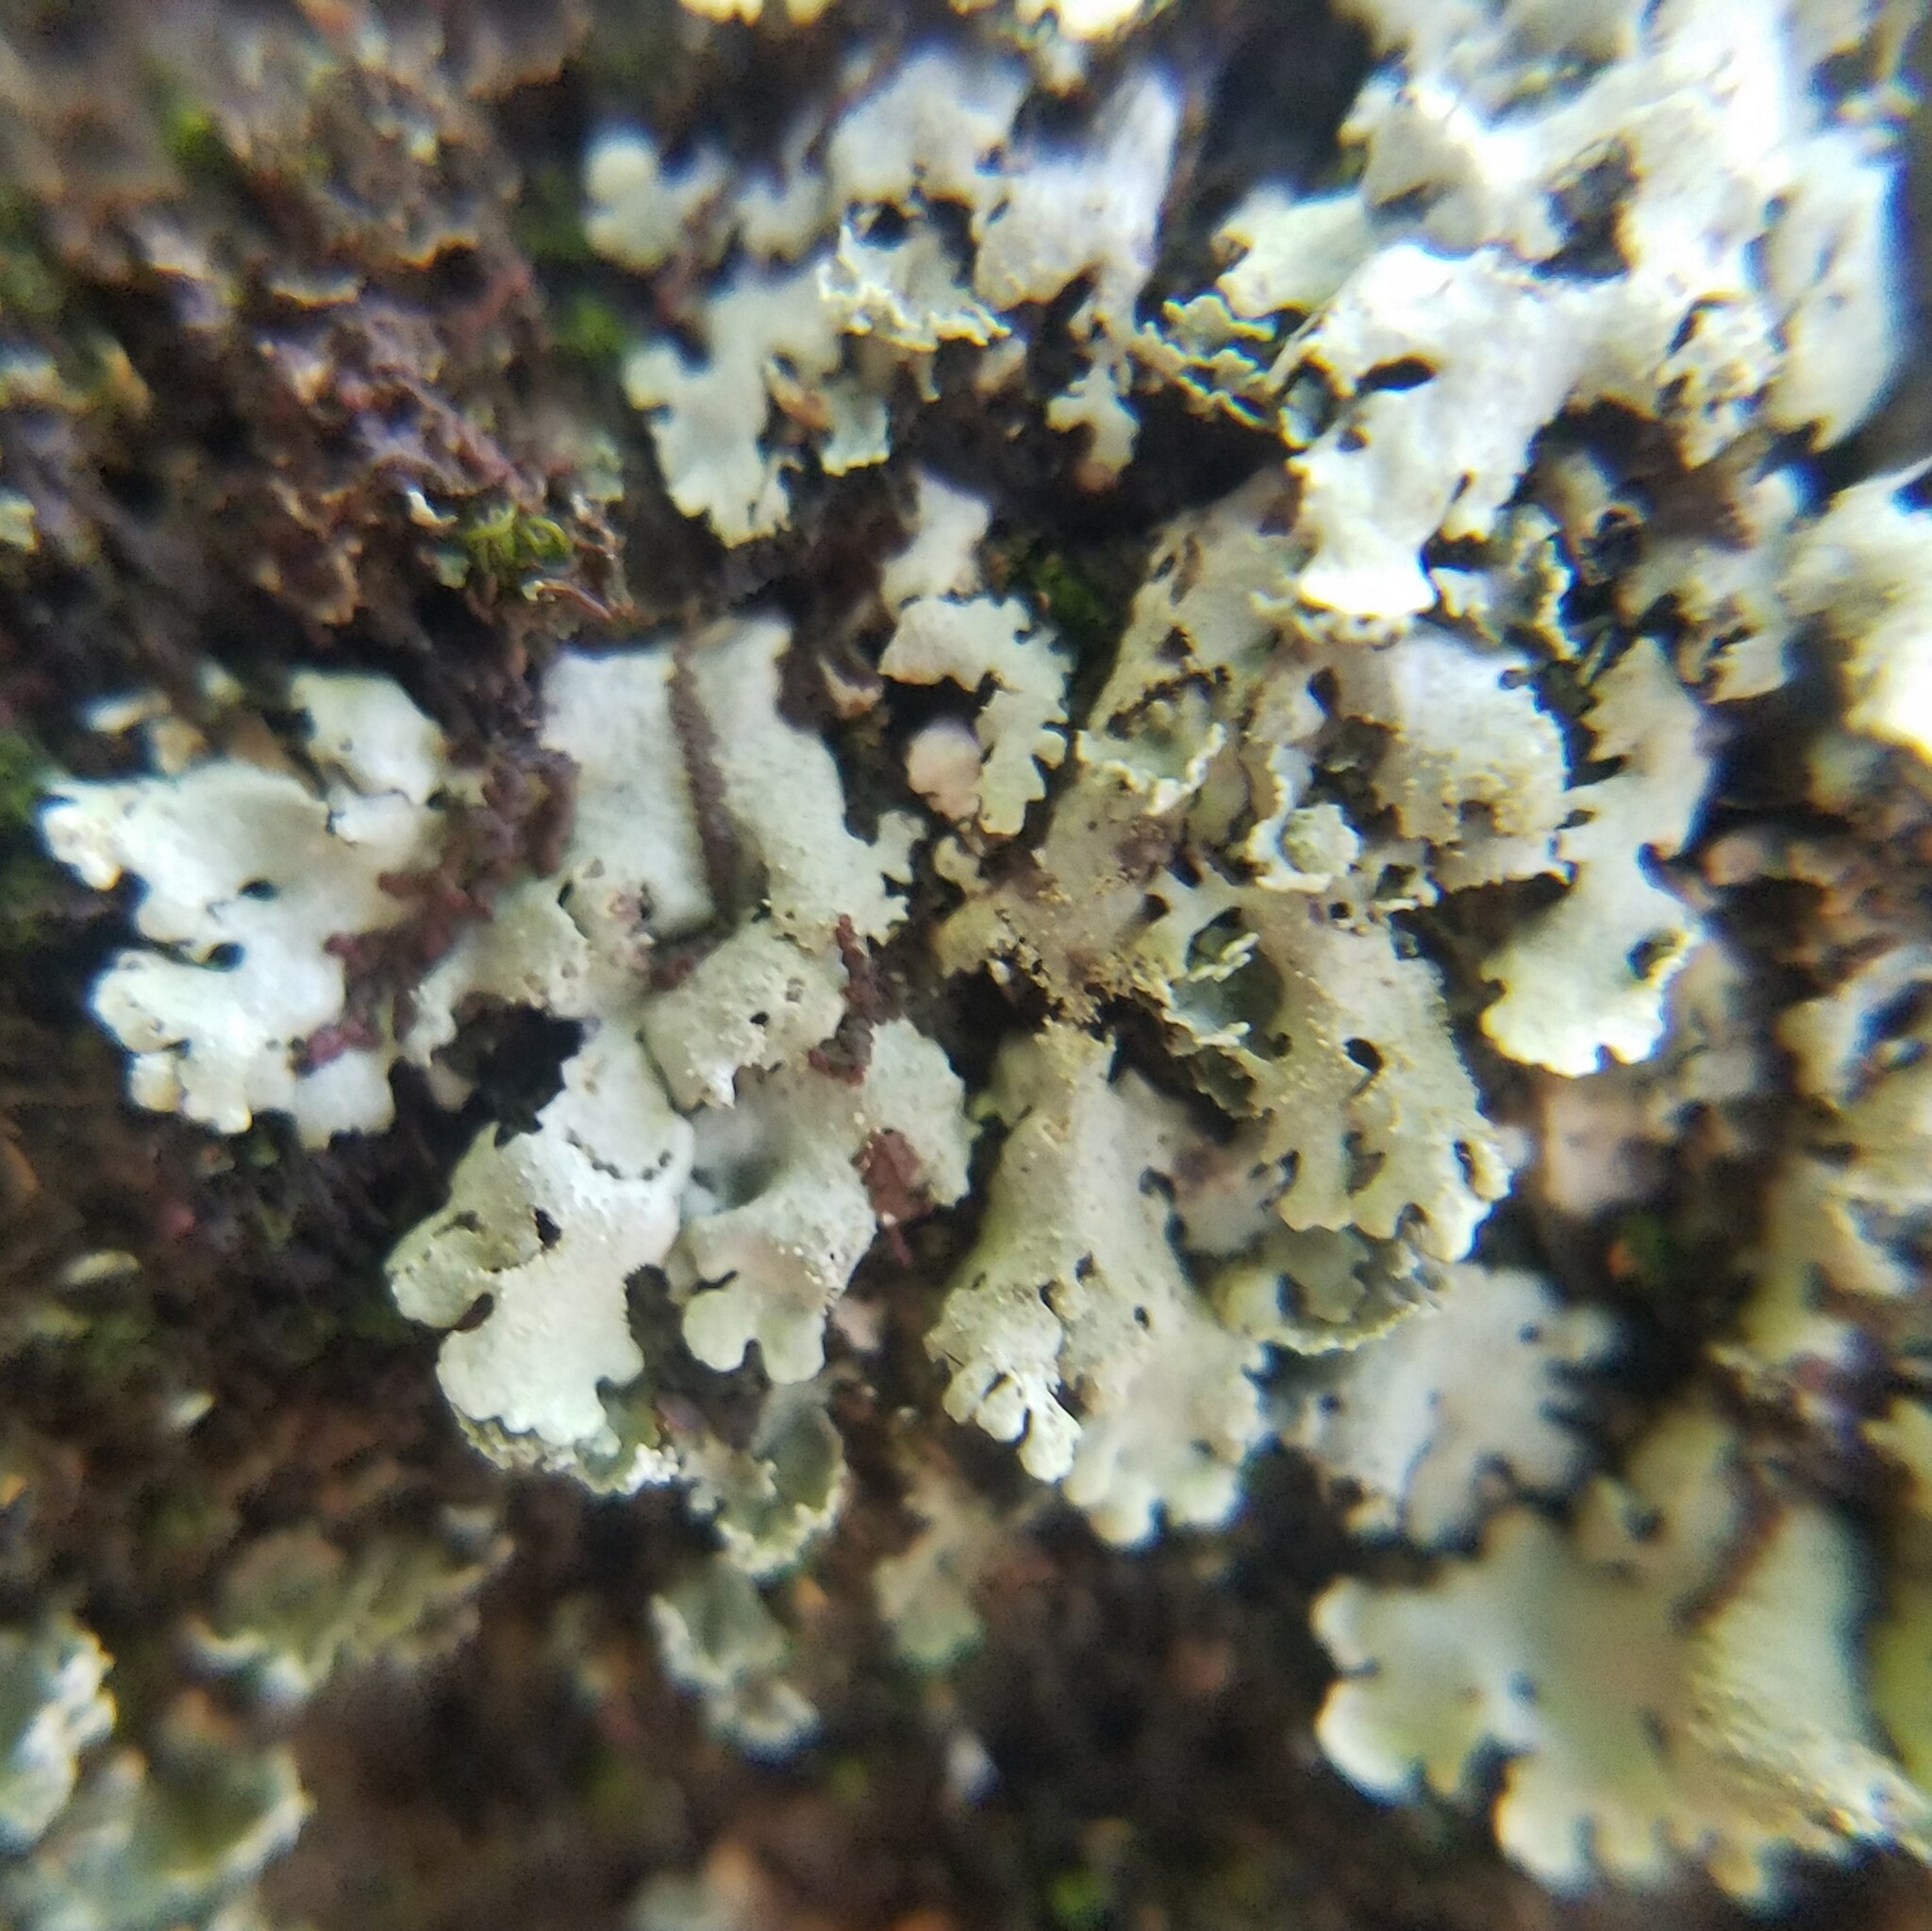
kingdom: Fungi
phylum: Ascomycota
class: Lecanoromycetes
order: Lecanorales
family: Parmeliaceae
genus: Hypotrachyna
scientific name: Hypotrachyna minarum
